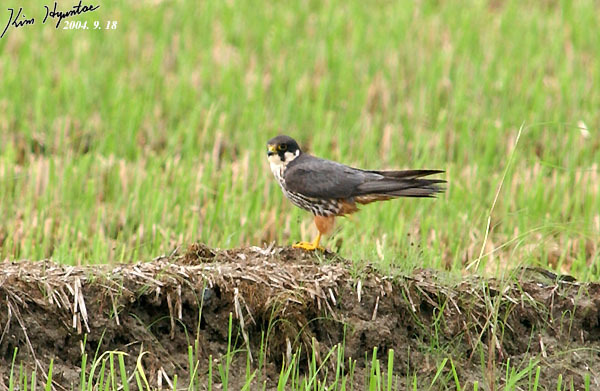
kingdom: Animalia
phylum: Chordata
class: Aves
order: Falconiformes
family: Falconidae
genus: Falco
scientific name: Falco subbuteo
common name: Eurasian hobby
